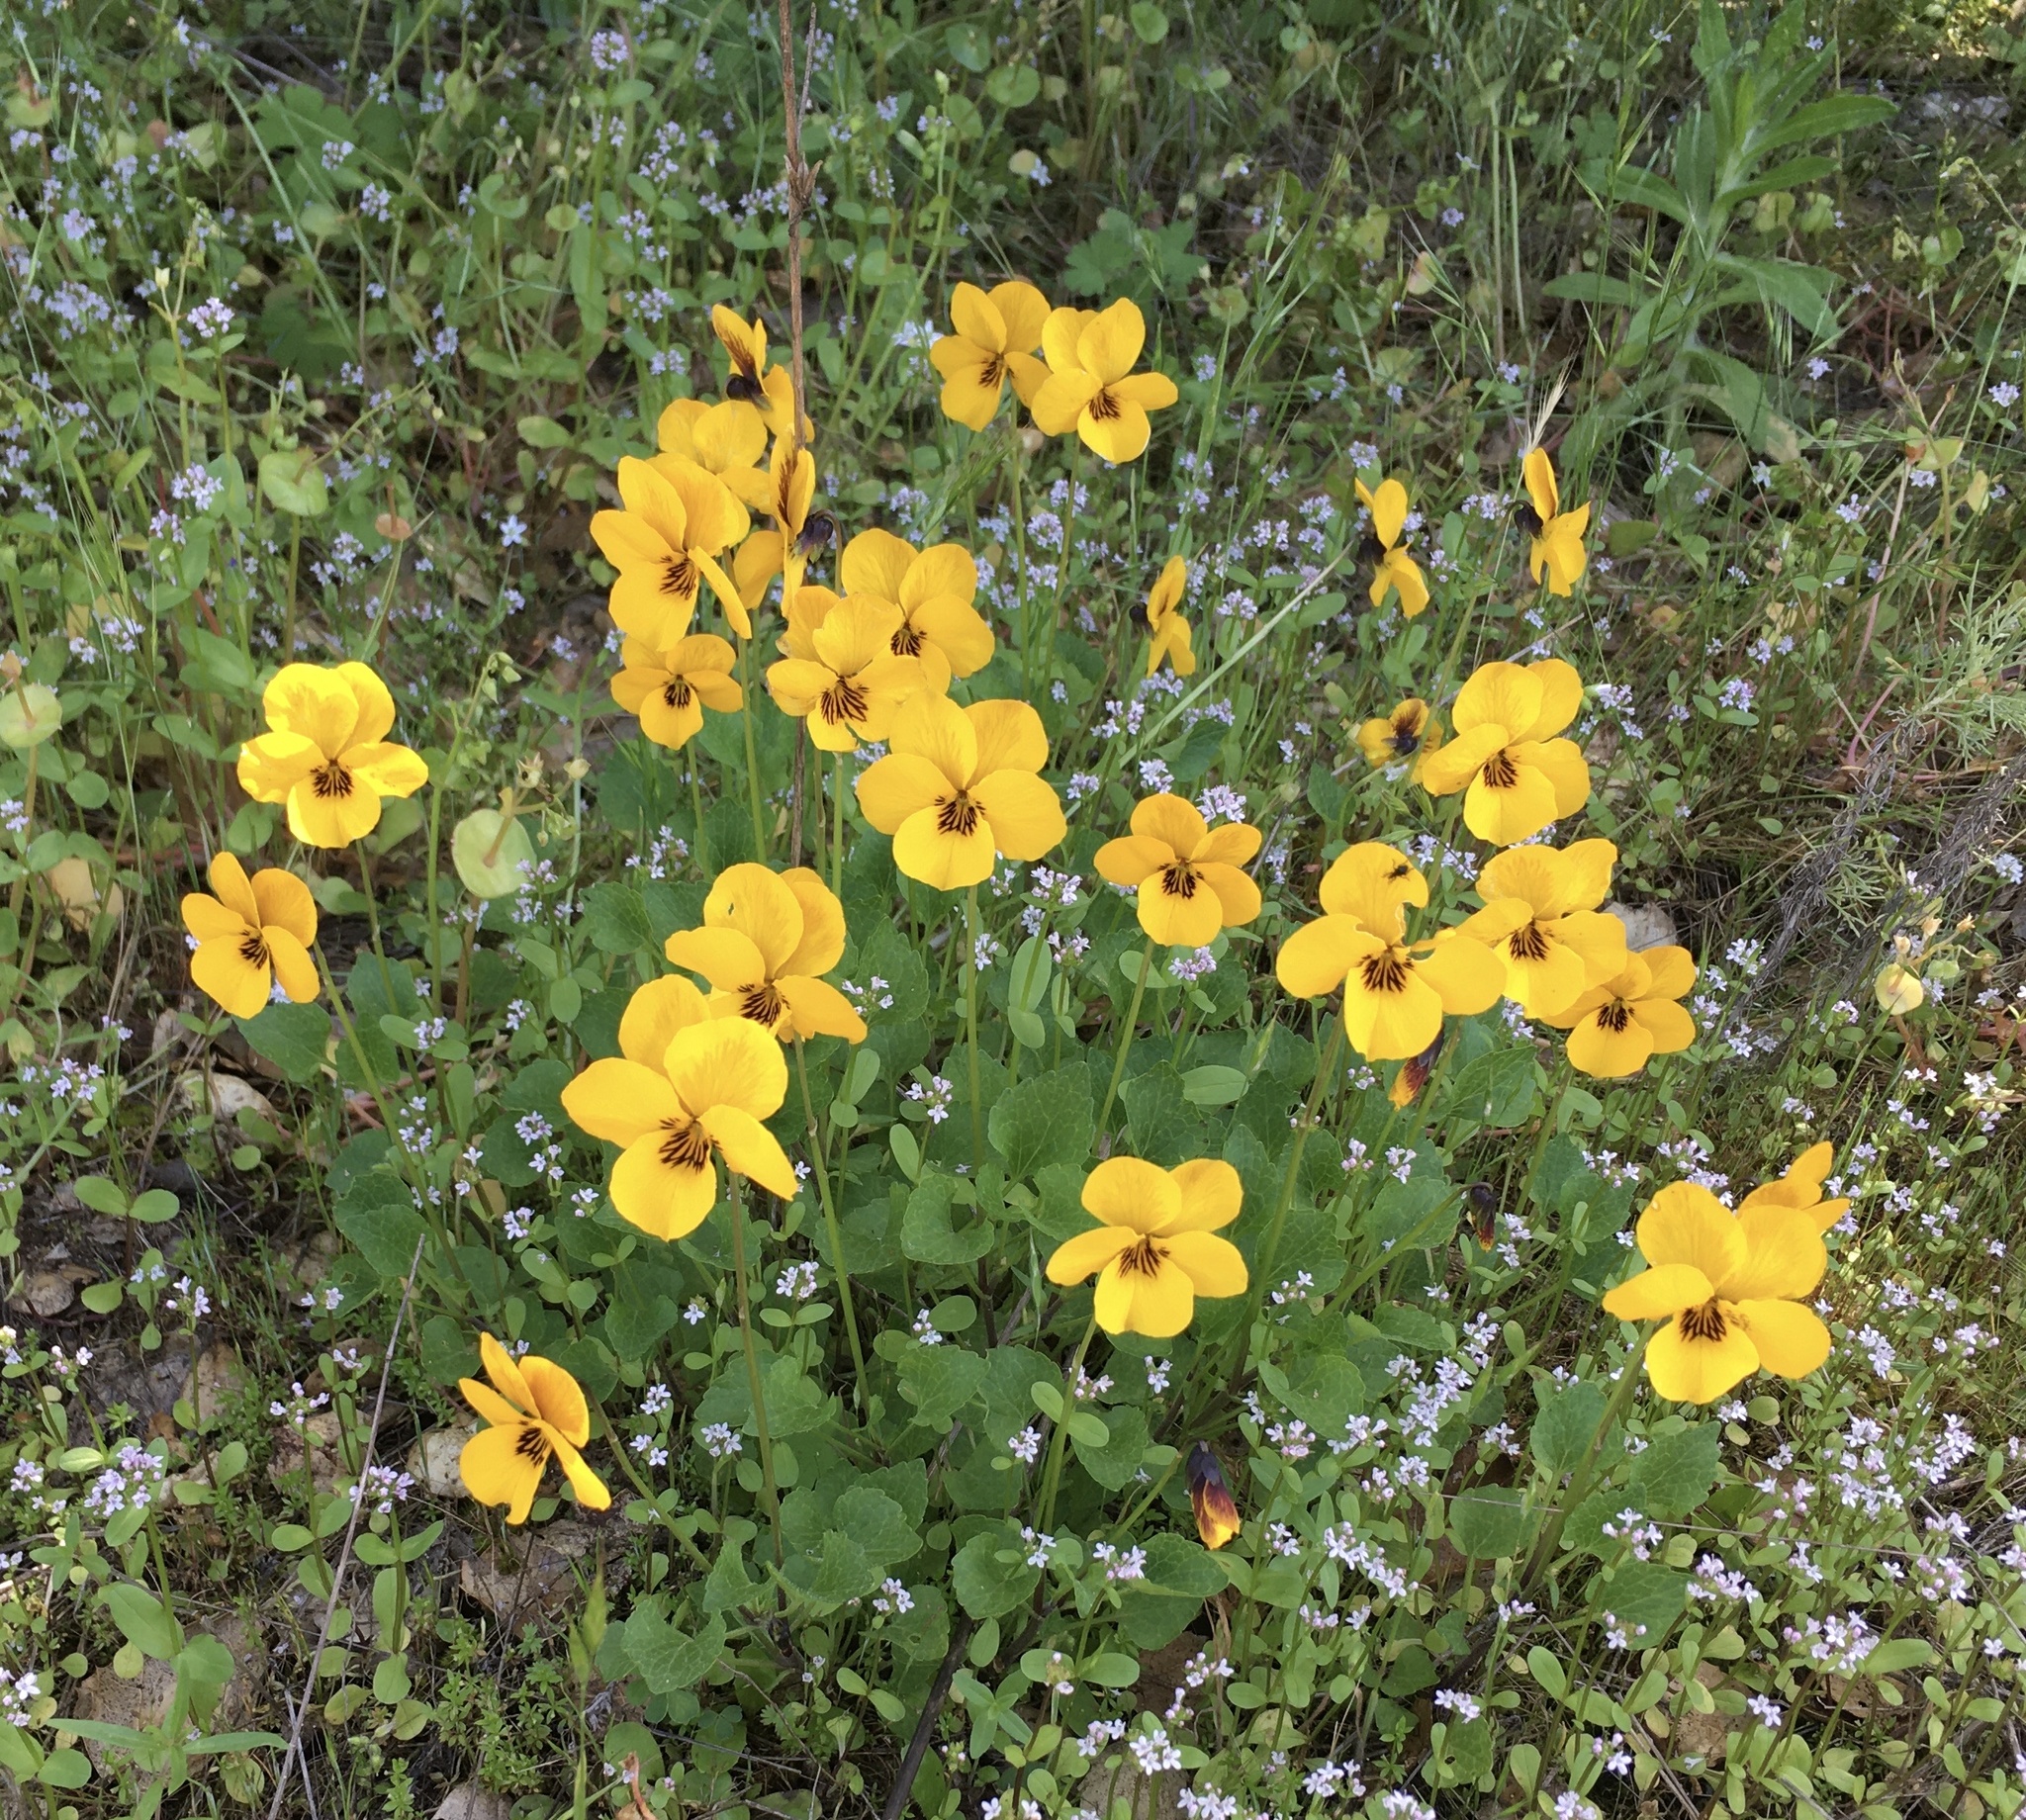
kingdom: Plantae
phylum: Tracheophyta
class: Magnoliopsida
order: Malpighiales
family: Violaceae
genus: Viola
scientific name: Viola pedunculata
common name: California golden violet
